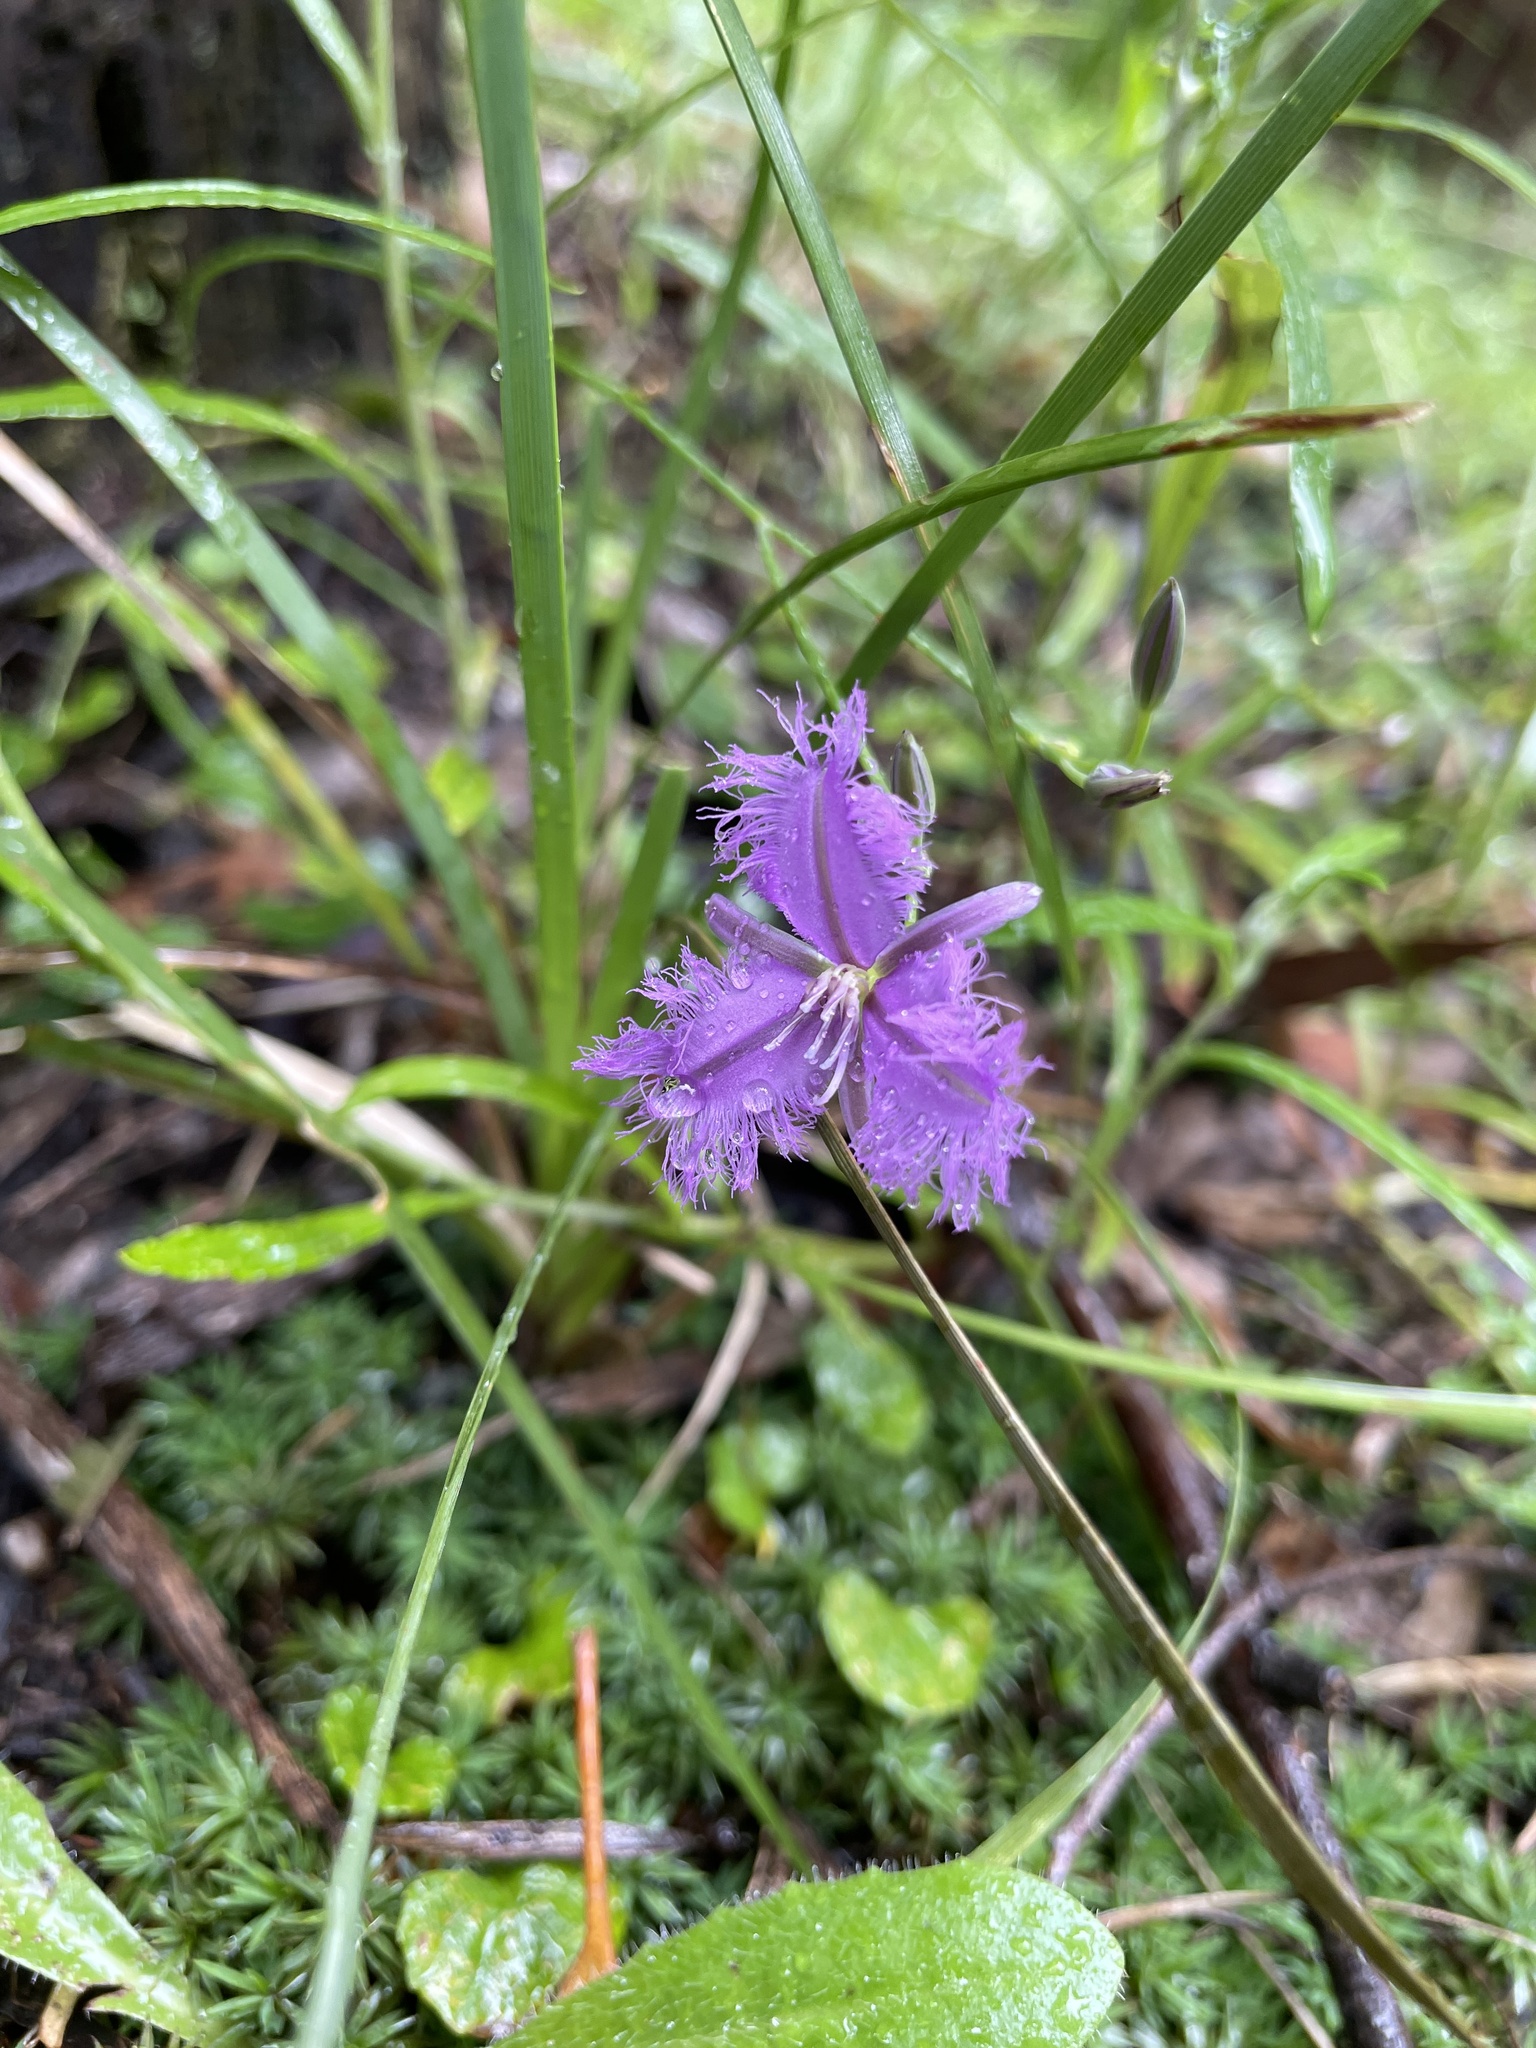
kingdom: Plantae
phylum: Tracheophyta
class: Liliopsida
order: Asparagales
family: Asparagaceae
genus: Thysanotus
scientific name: Thysanotus tuberosus
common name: Common fringed-lily
